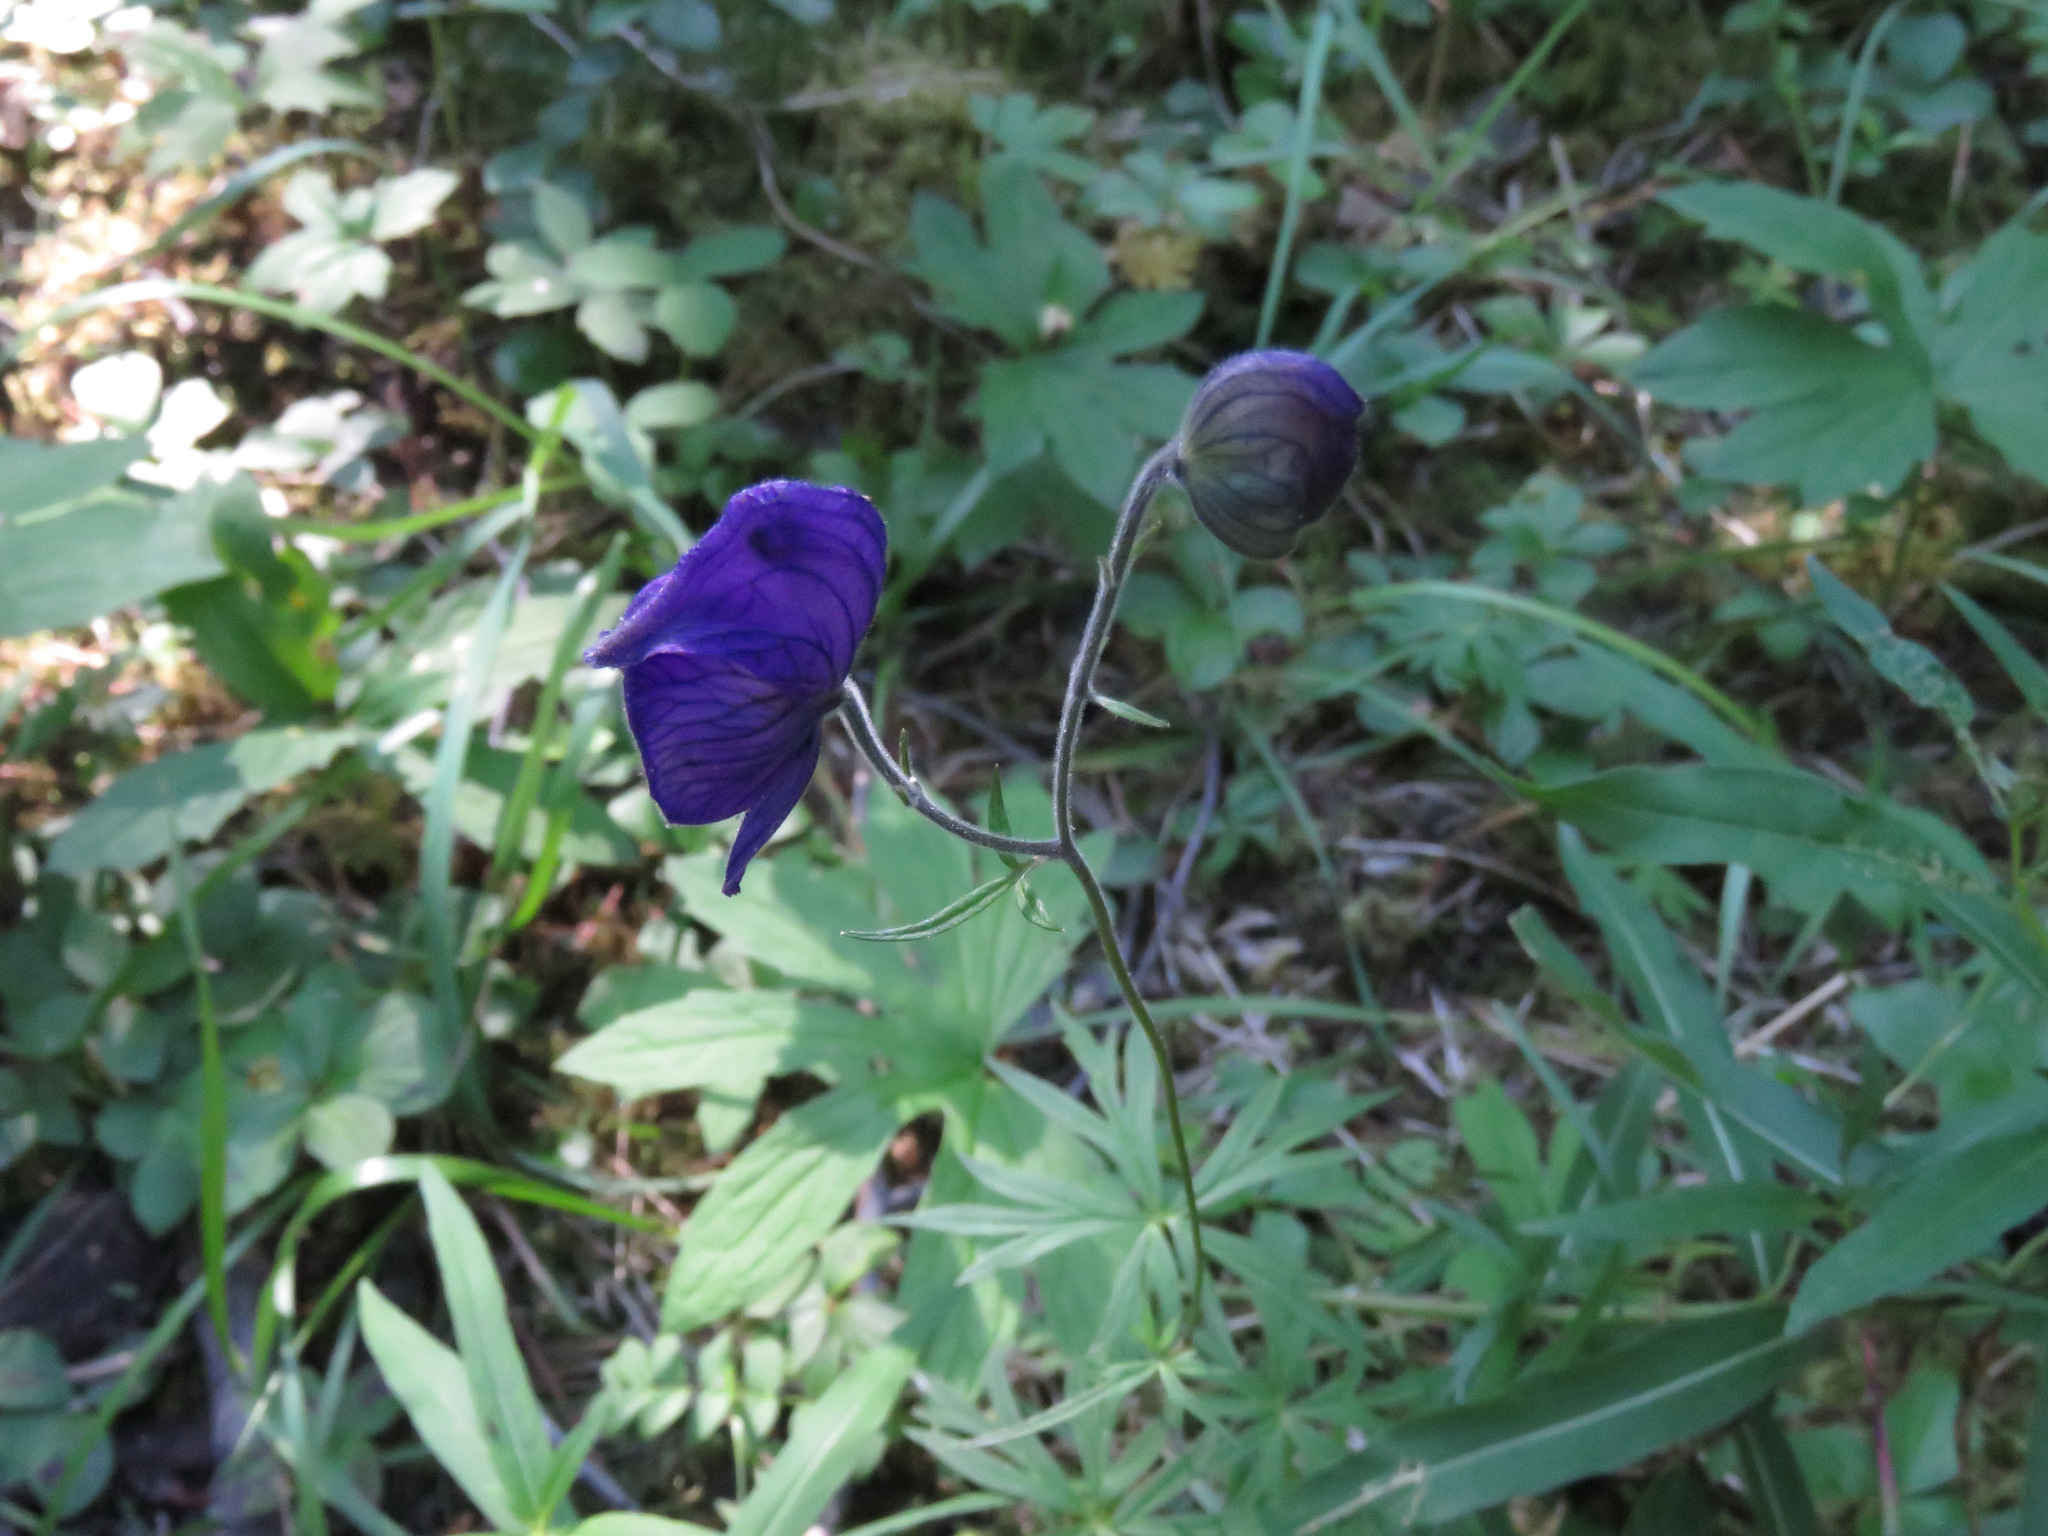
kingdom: Plantae
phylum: Tracheophyta
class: Magnoliopsida
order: Ranunculales
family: Ranunculaceae
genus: Aconitum
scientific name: Aconitum delphiniifolium
